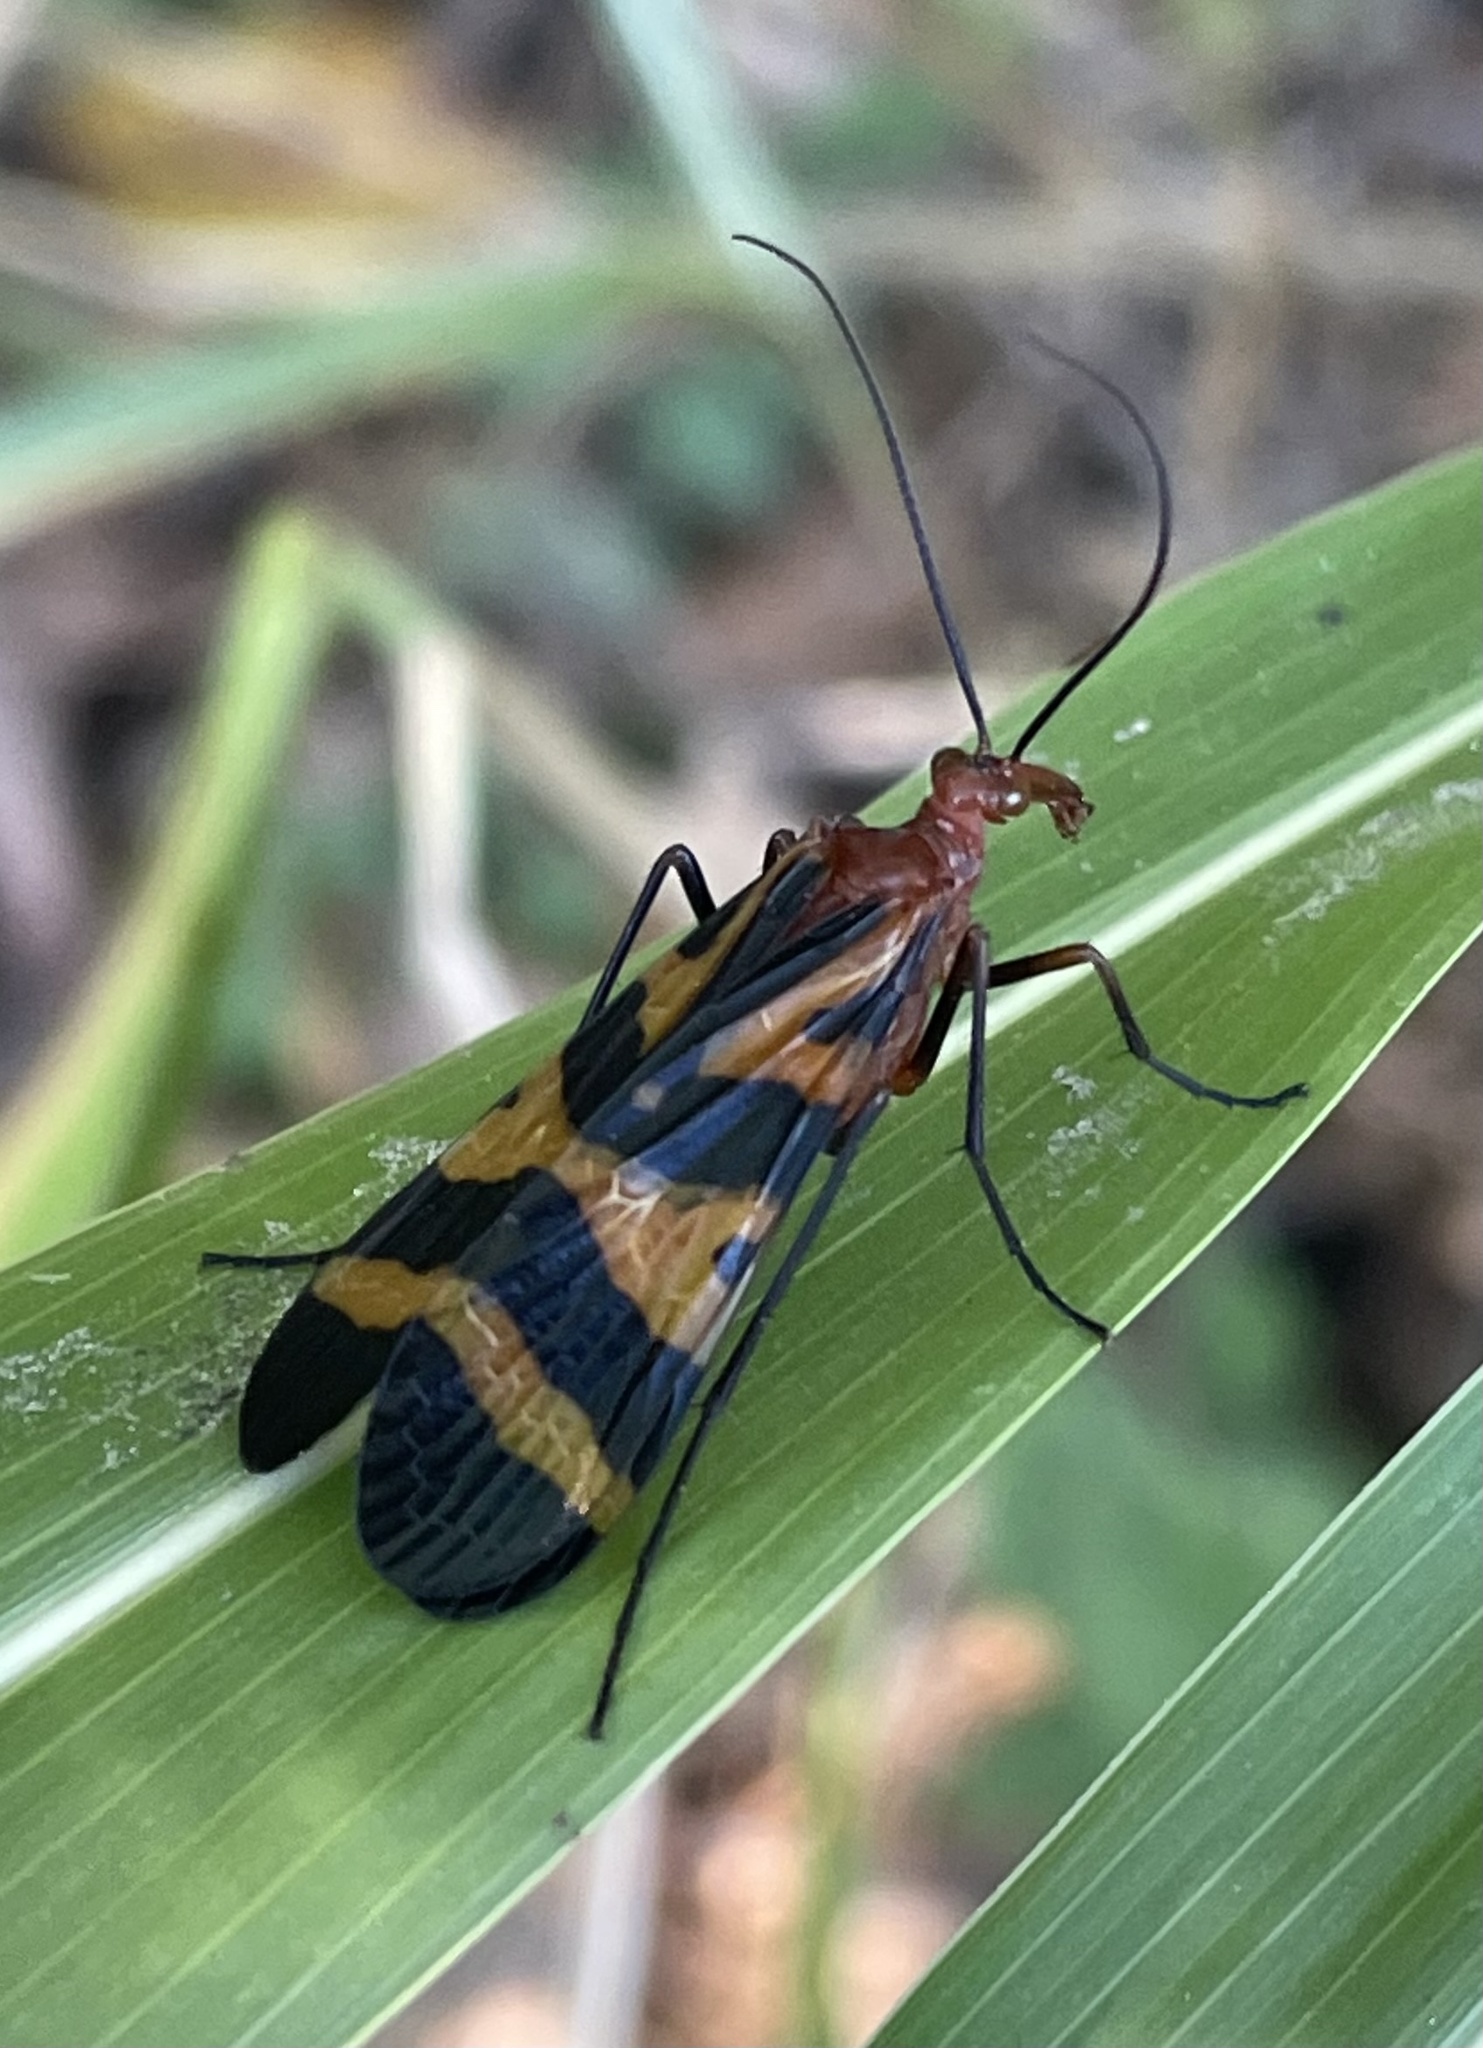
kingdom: Animalia
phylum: Arthropoda
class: Insecta
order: Mecoptera
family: Panorpidae
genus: Panorpa
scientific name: Panorpa nuptialis
